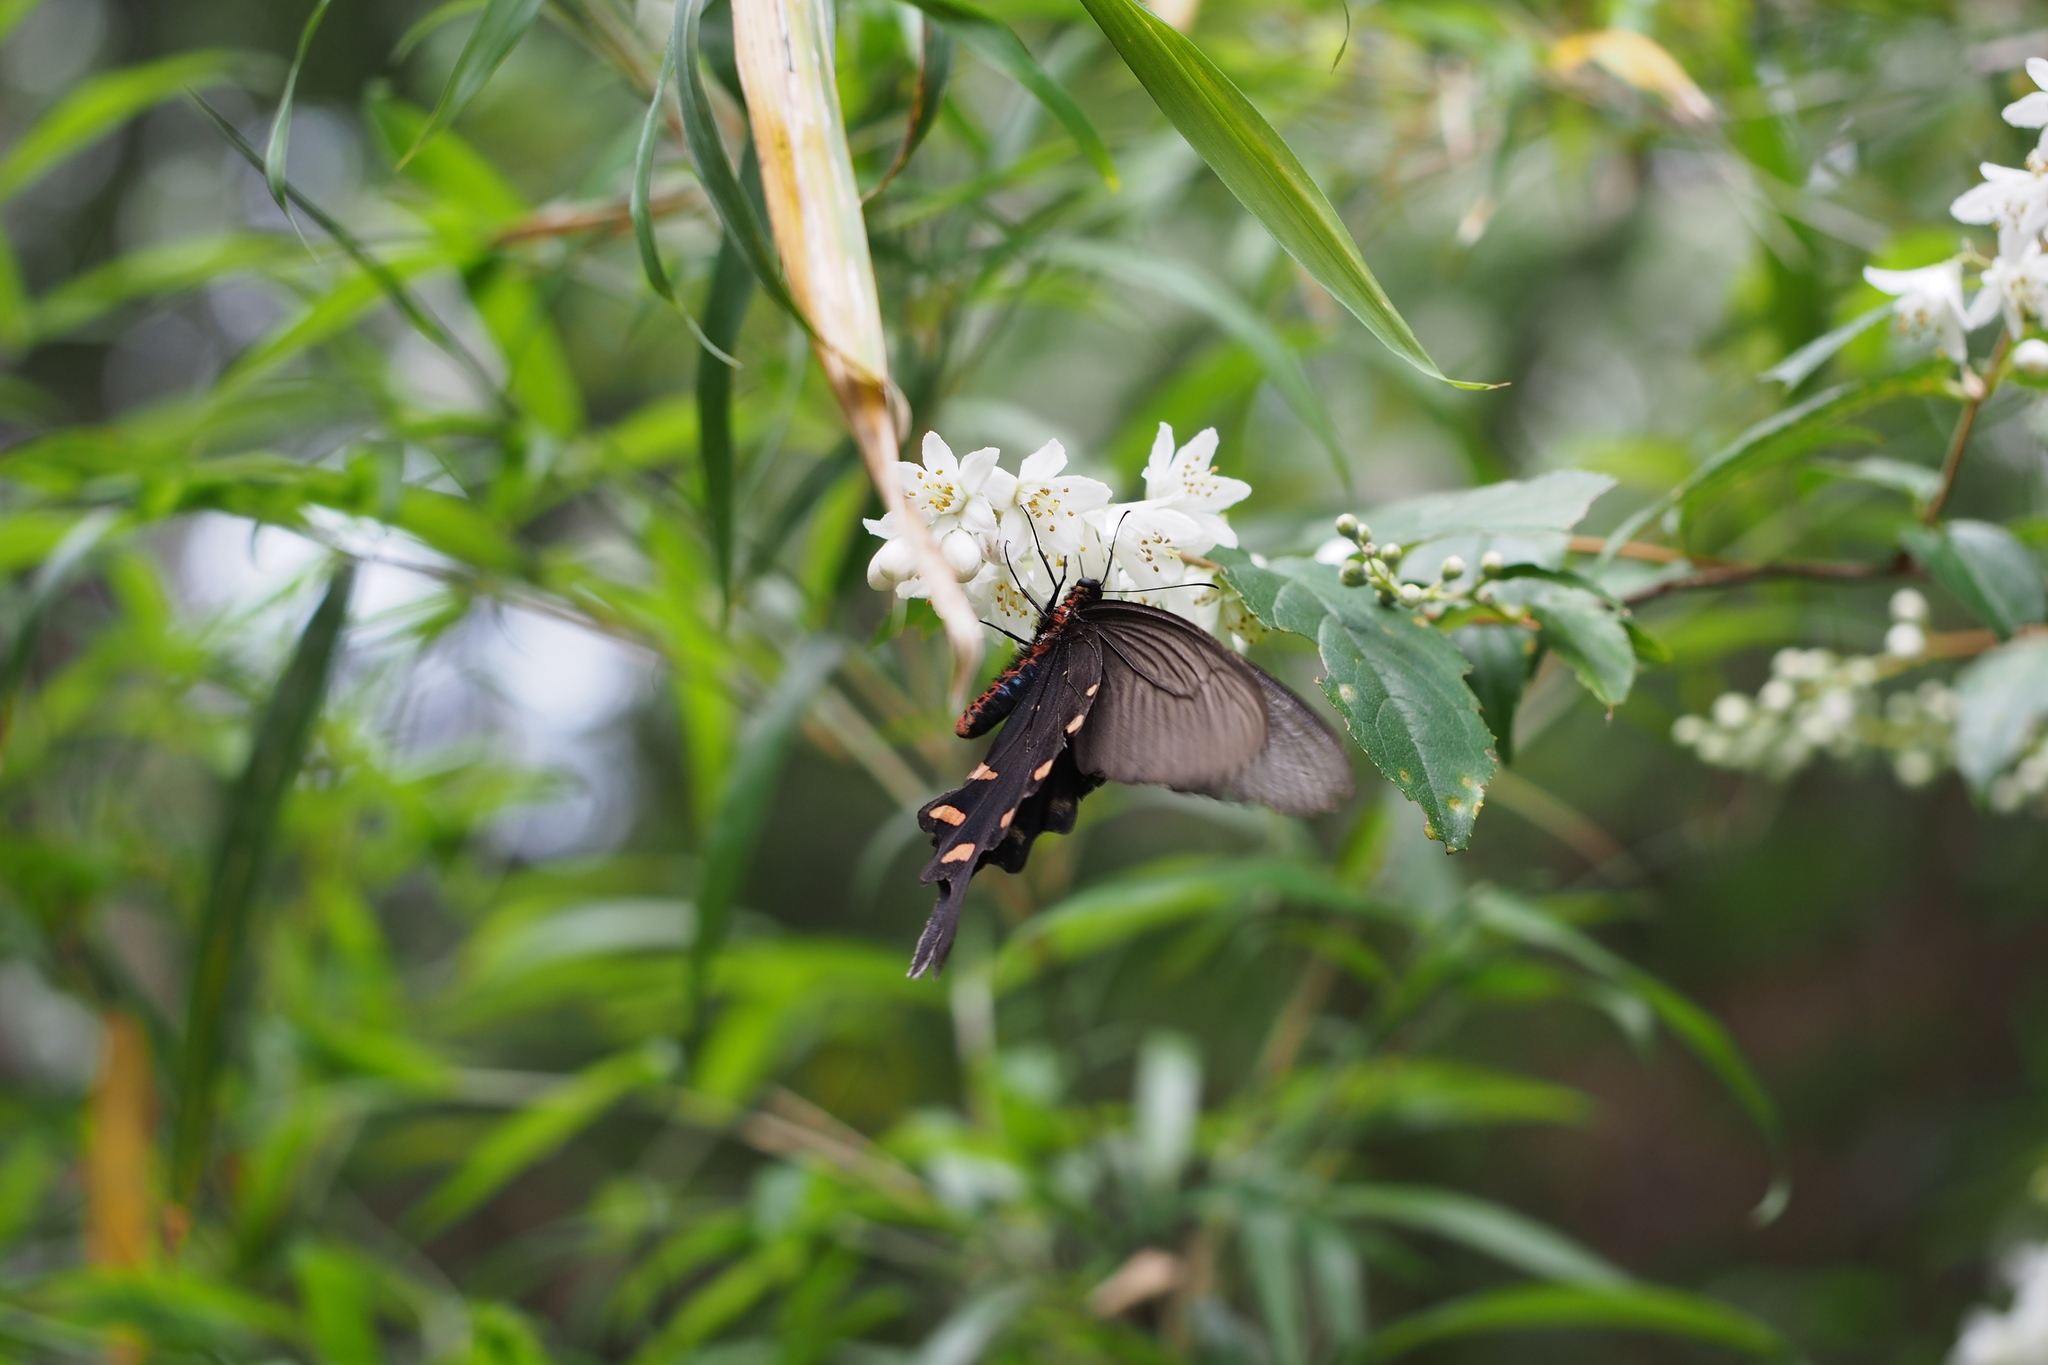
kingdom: Animalia
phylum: Arthropoda
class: Insecta
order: Lepidoptera
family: Papilionidae
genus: Byasa
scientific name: Byasa alcinous
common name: Chinese windmill
